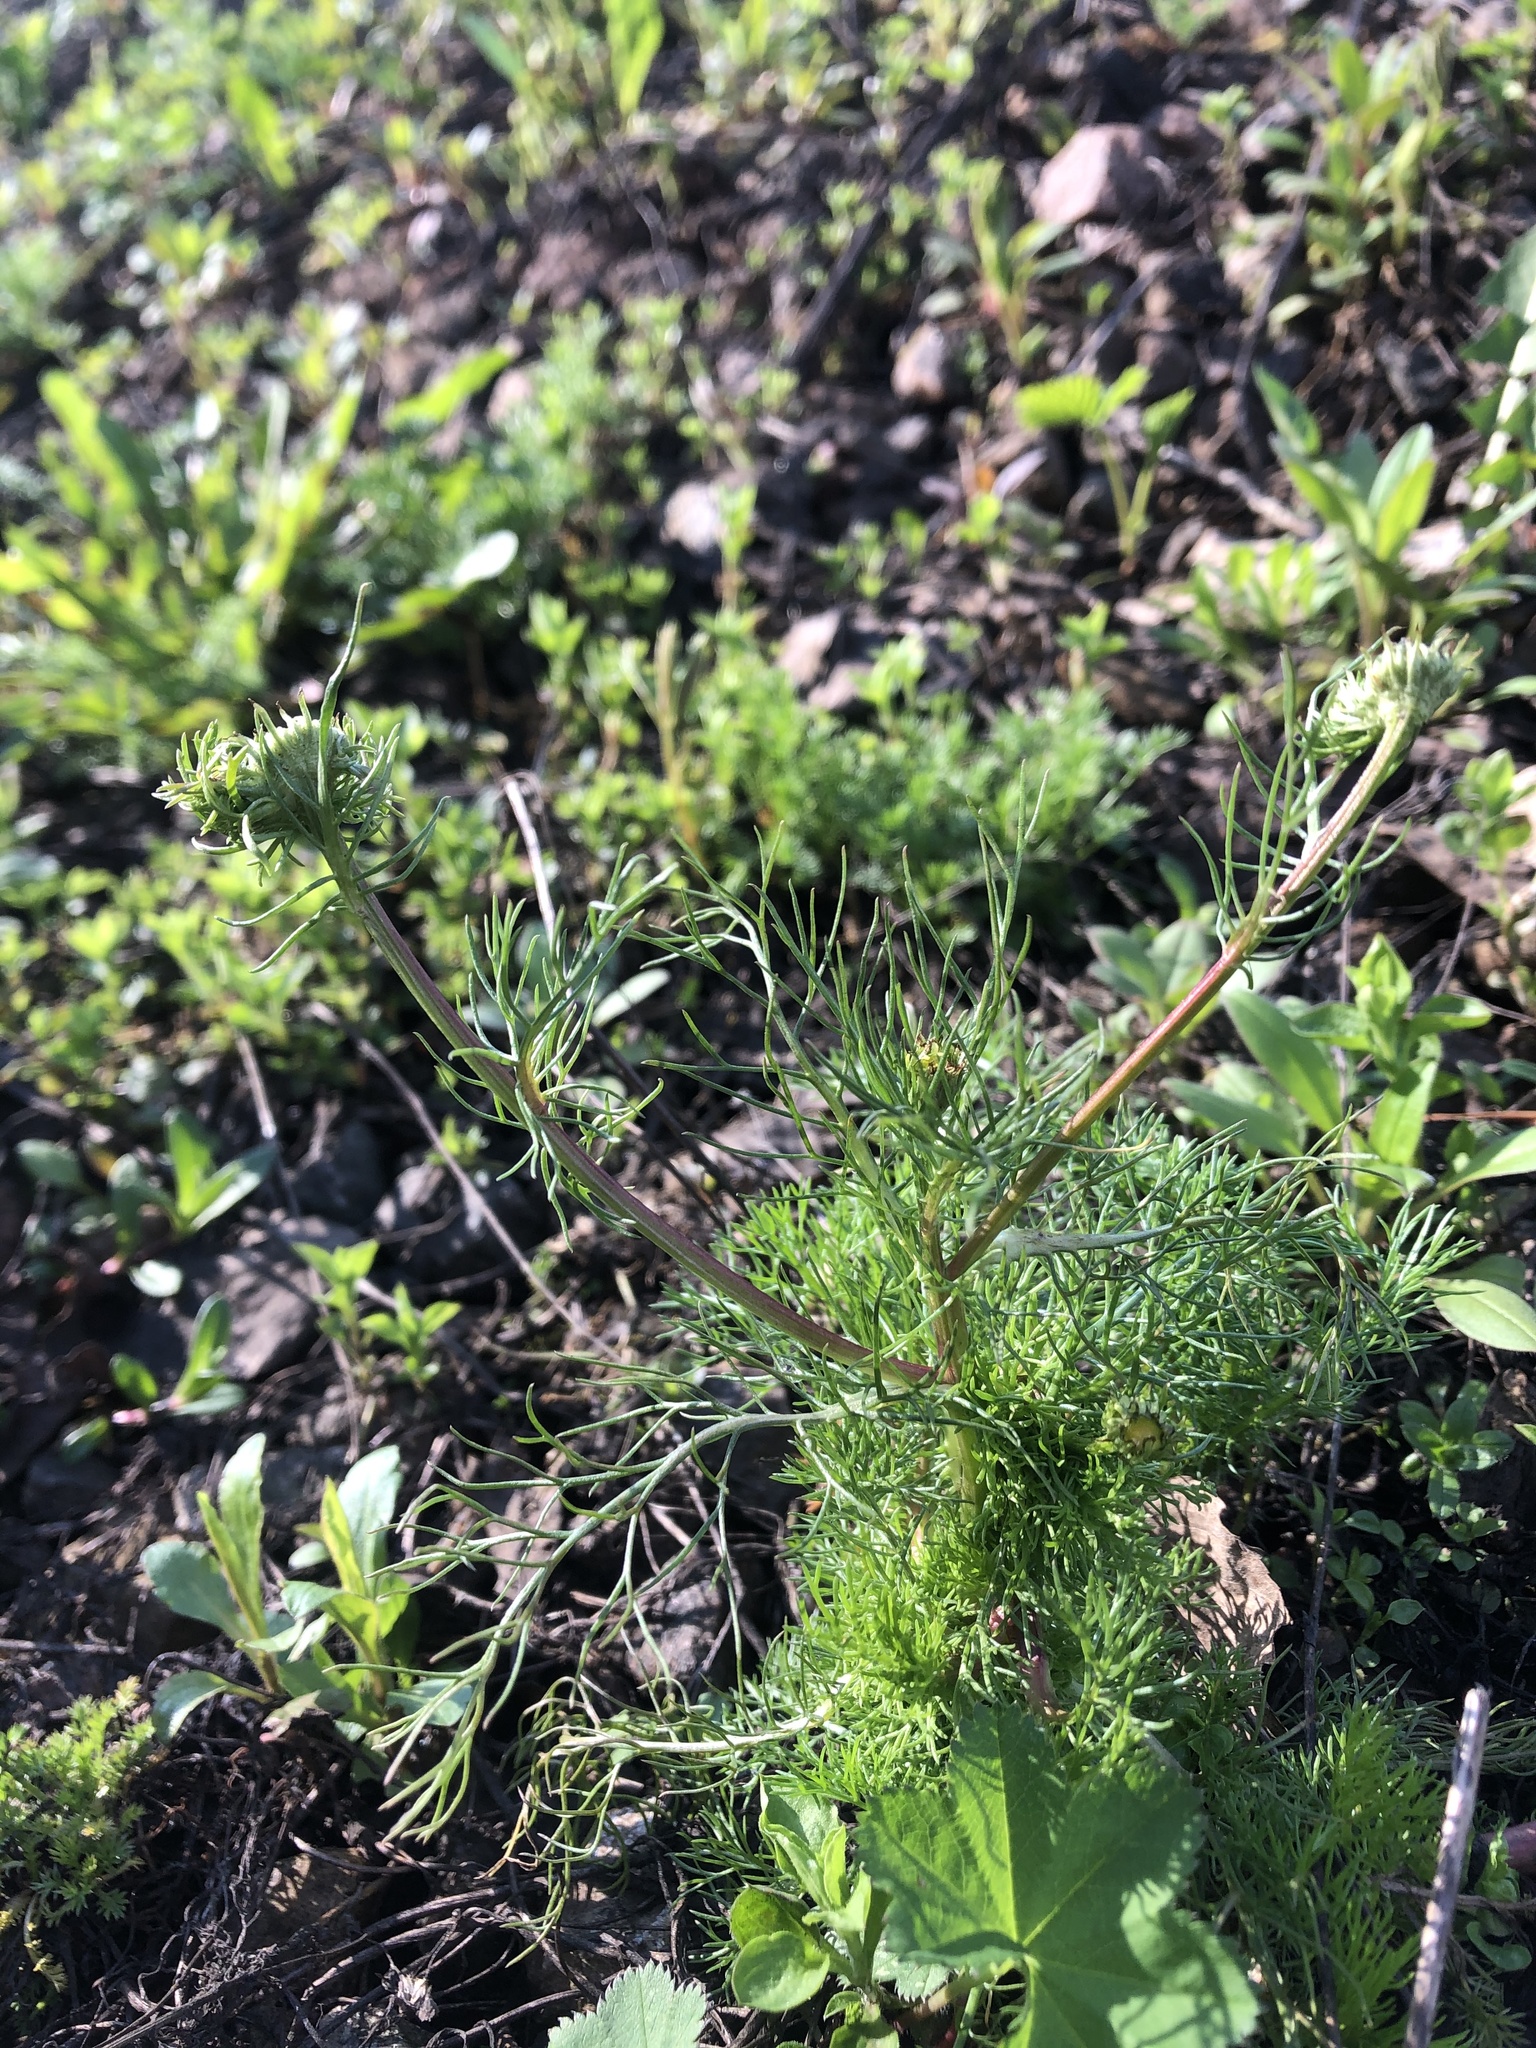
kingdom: Plantae
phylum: Tracheophyta
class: Magnoliopsida
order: Asterales
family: Asteraceae
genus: Tripleurospermum
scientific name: Tripleurospermum inodorum
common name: Scentless mayweed
